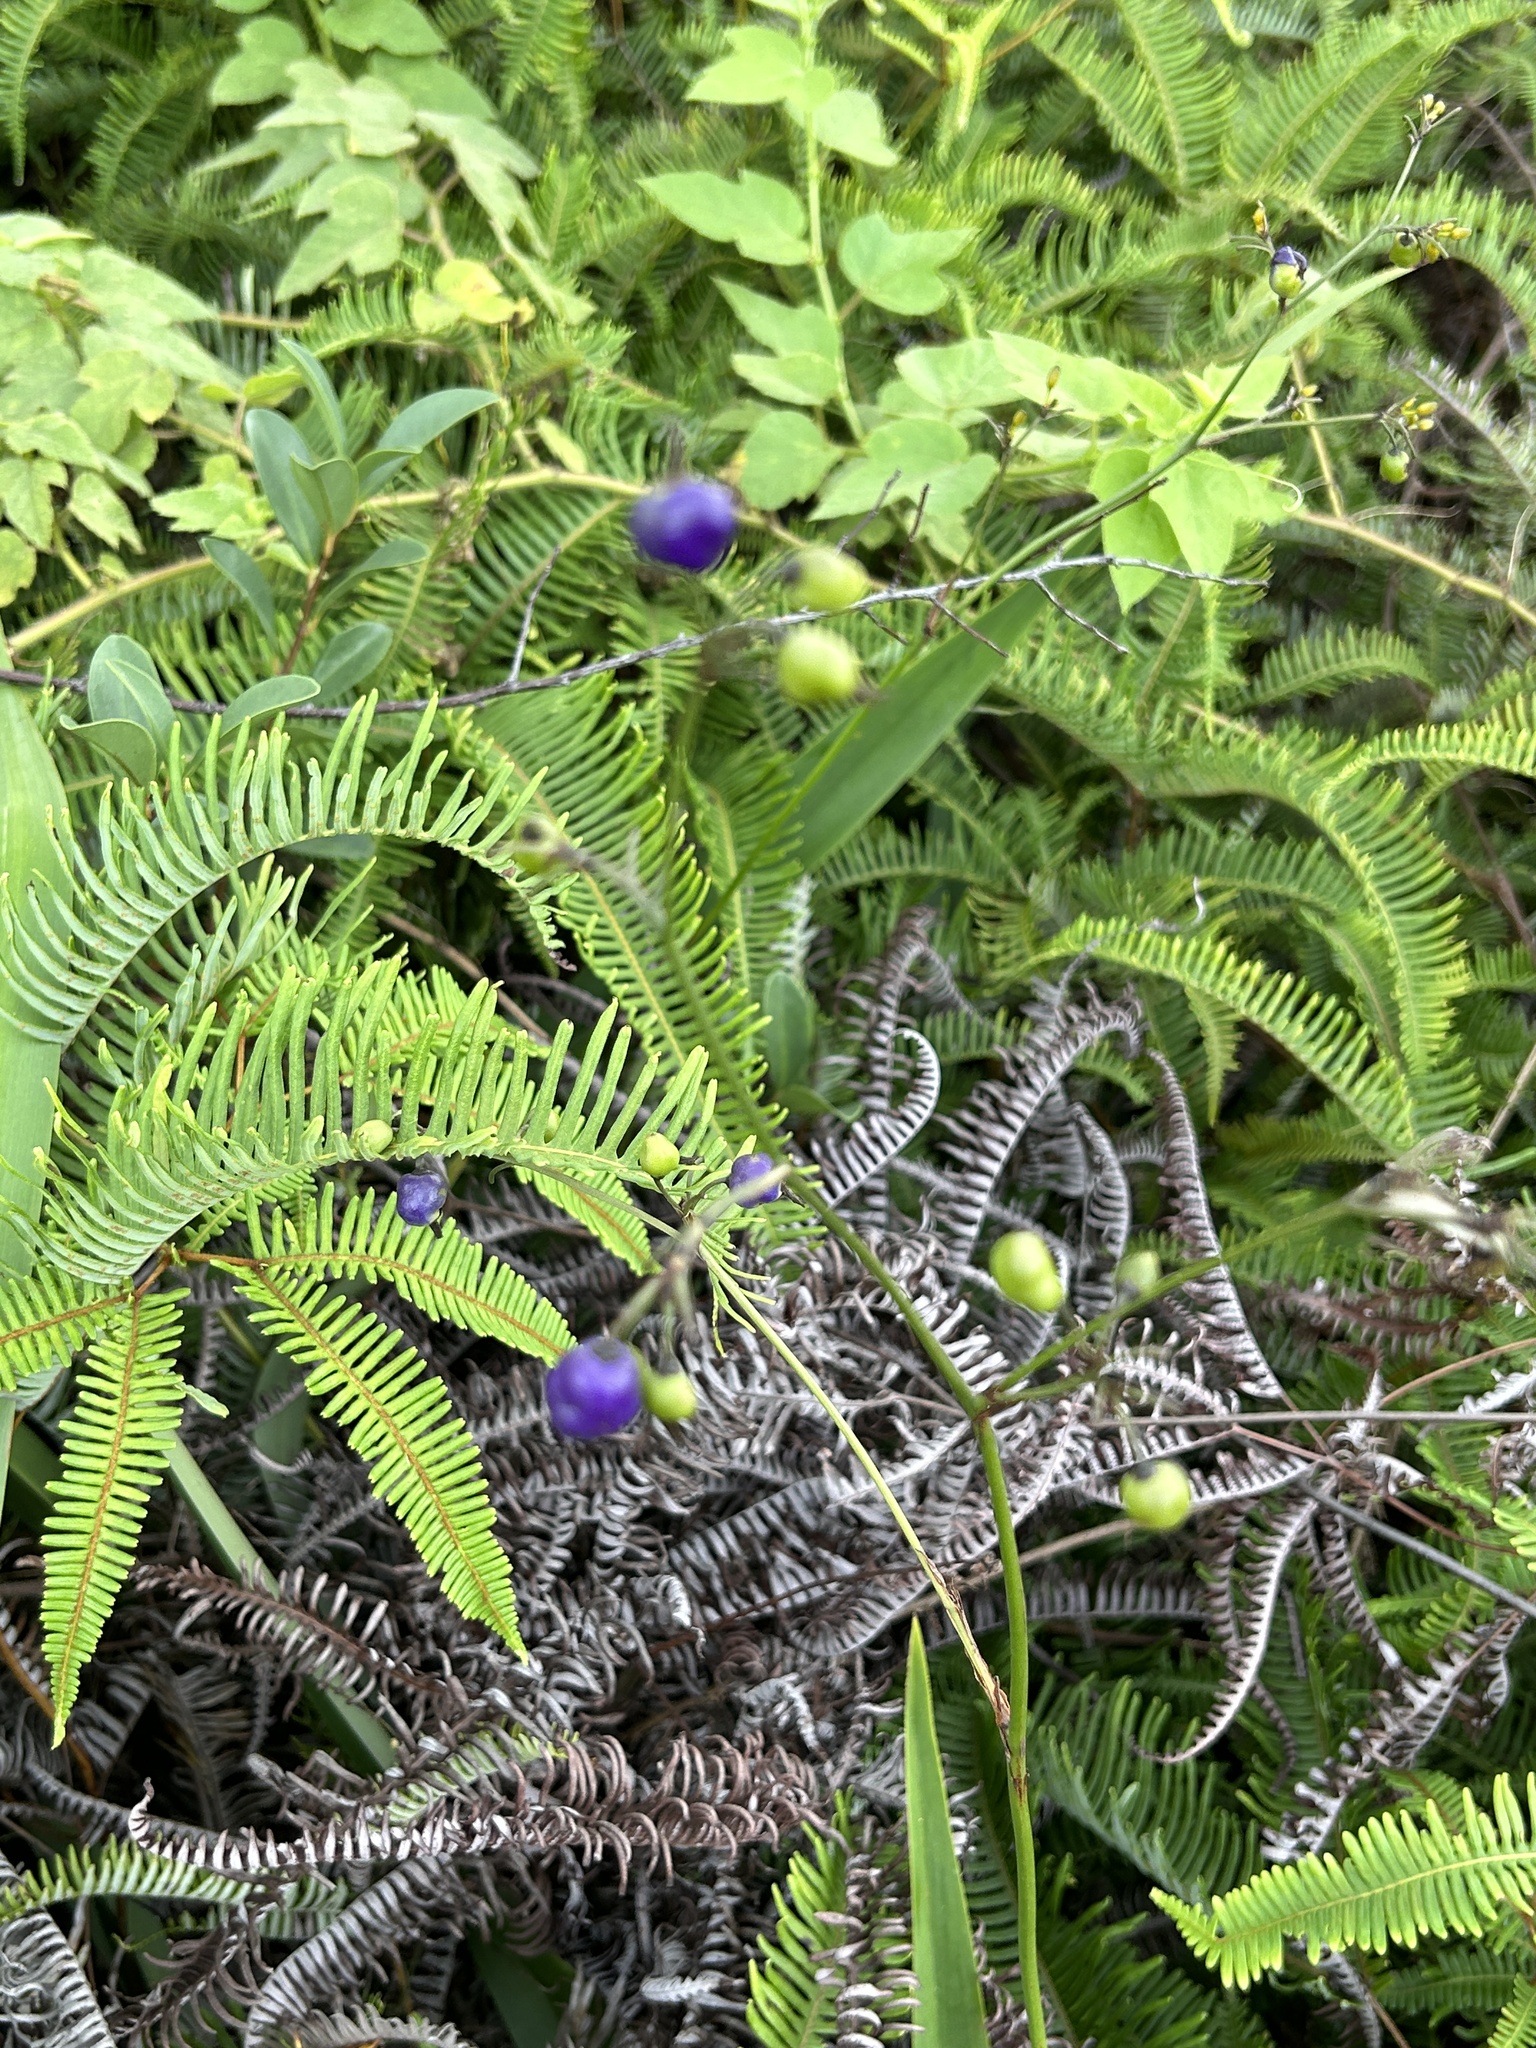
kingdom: Plantae
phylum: Tracheophyta
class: Liliopsida
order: Asparagales
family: Asphodelaceae
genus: Dianella
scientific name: Dianella ensifolia
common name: New zealand lilyplant
